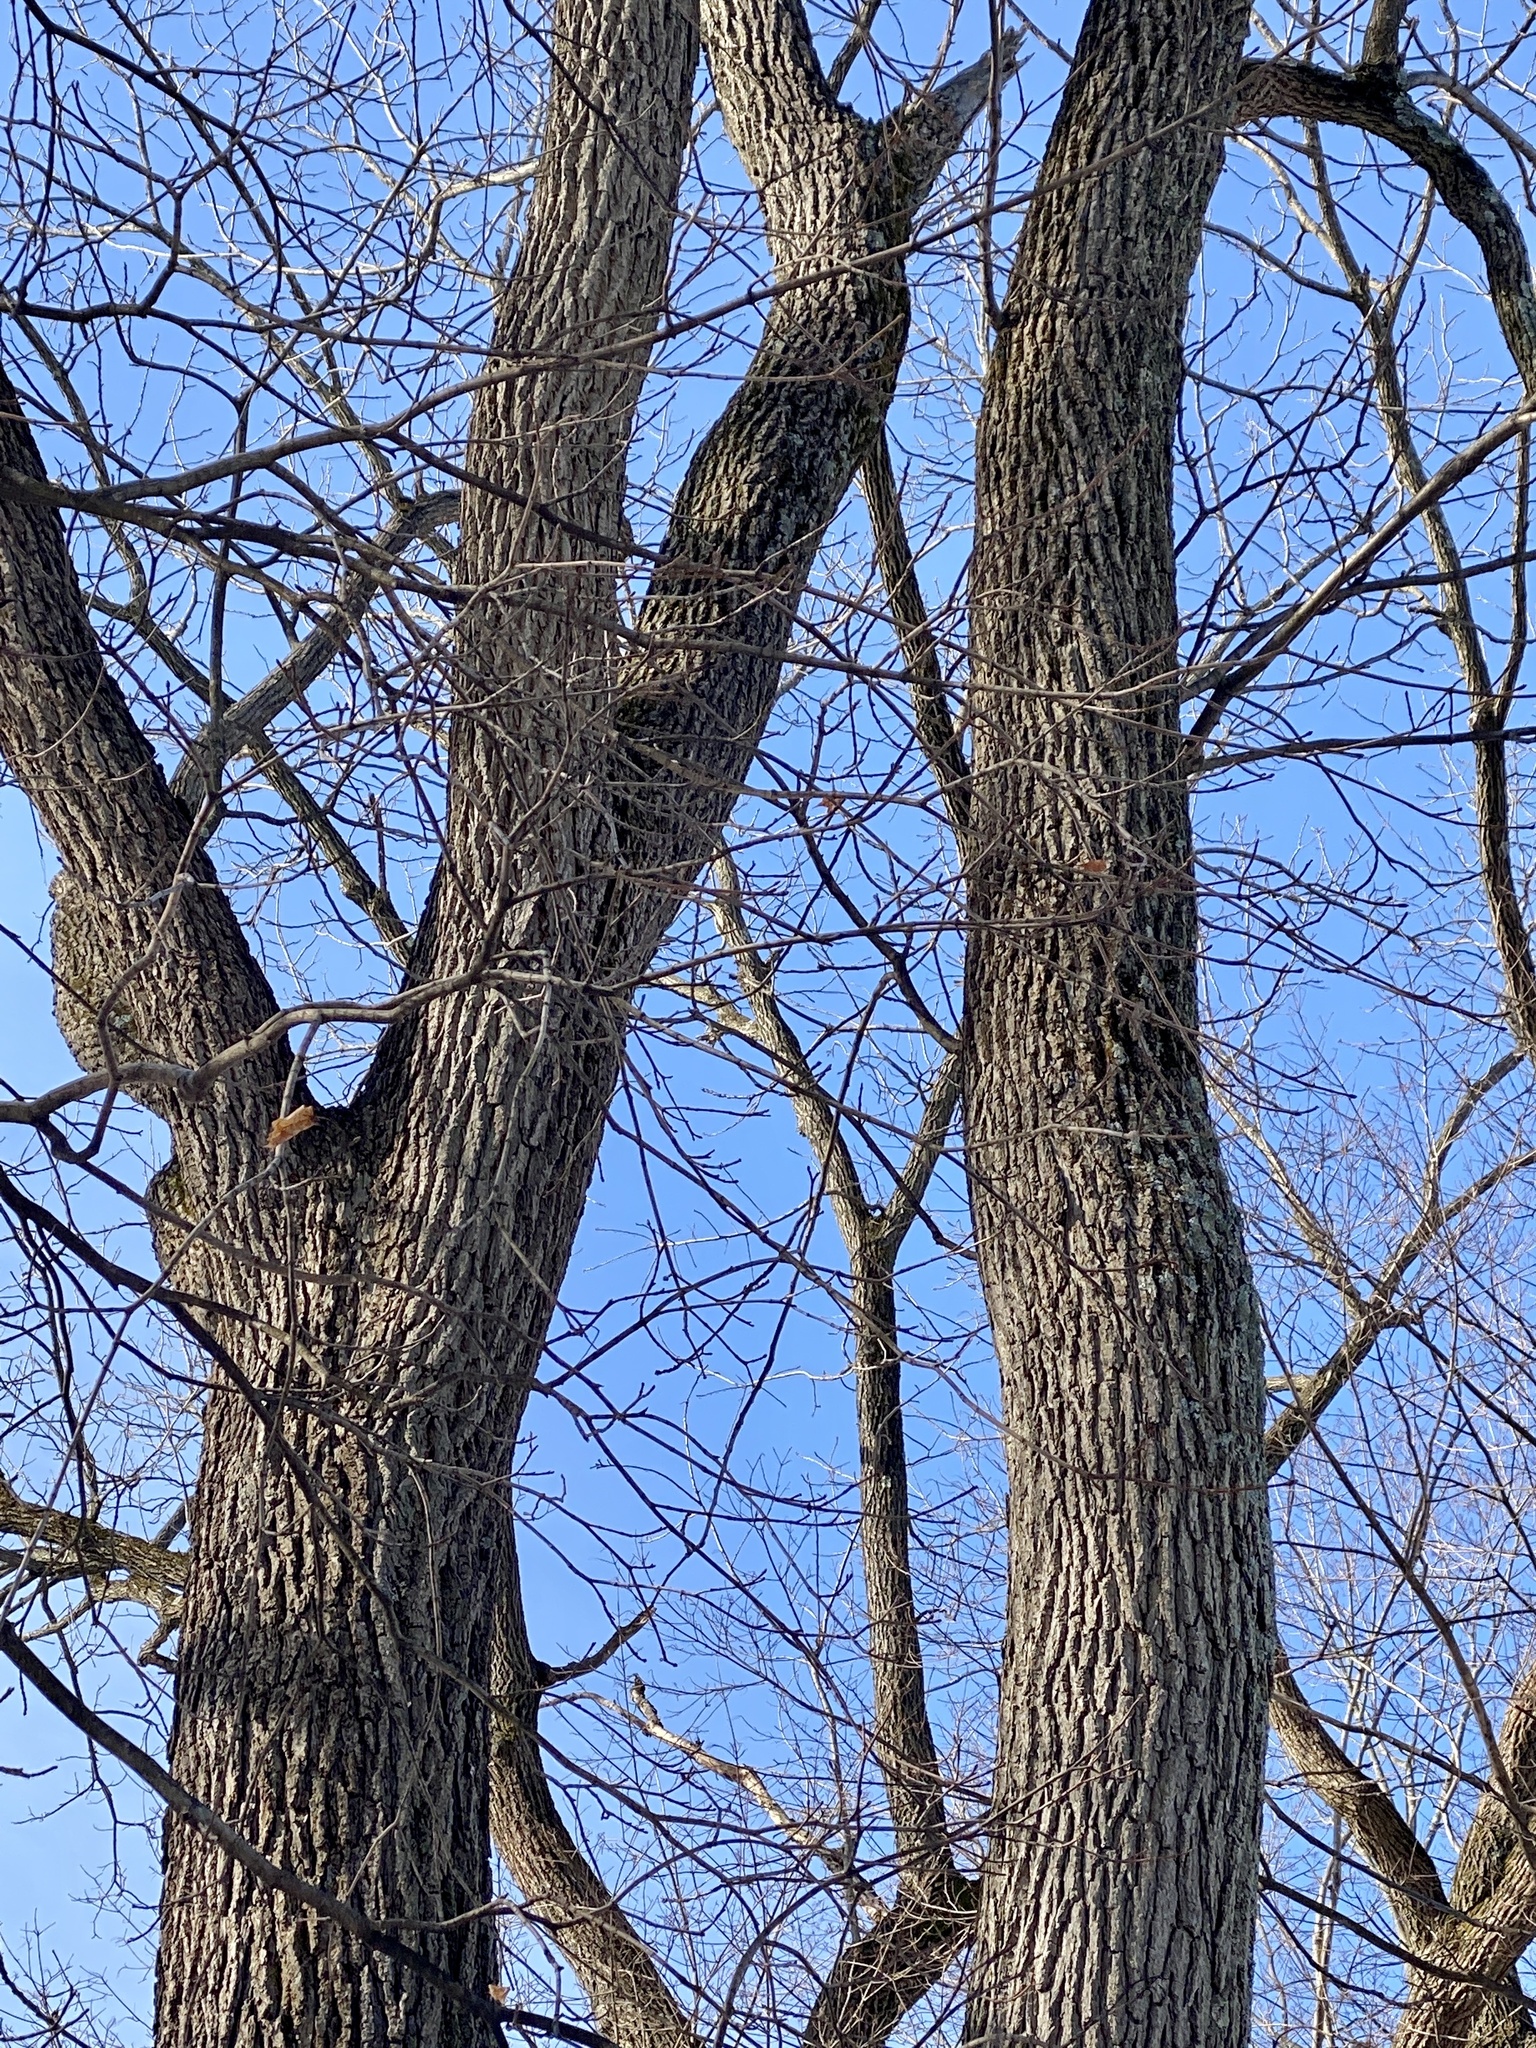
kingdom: Plantae
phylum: Tracheophyta
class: Magnoliopsida
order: Fagales
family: Juglandaceae
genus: Juglans
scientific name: Juglans nigra
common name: Black walnut
